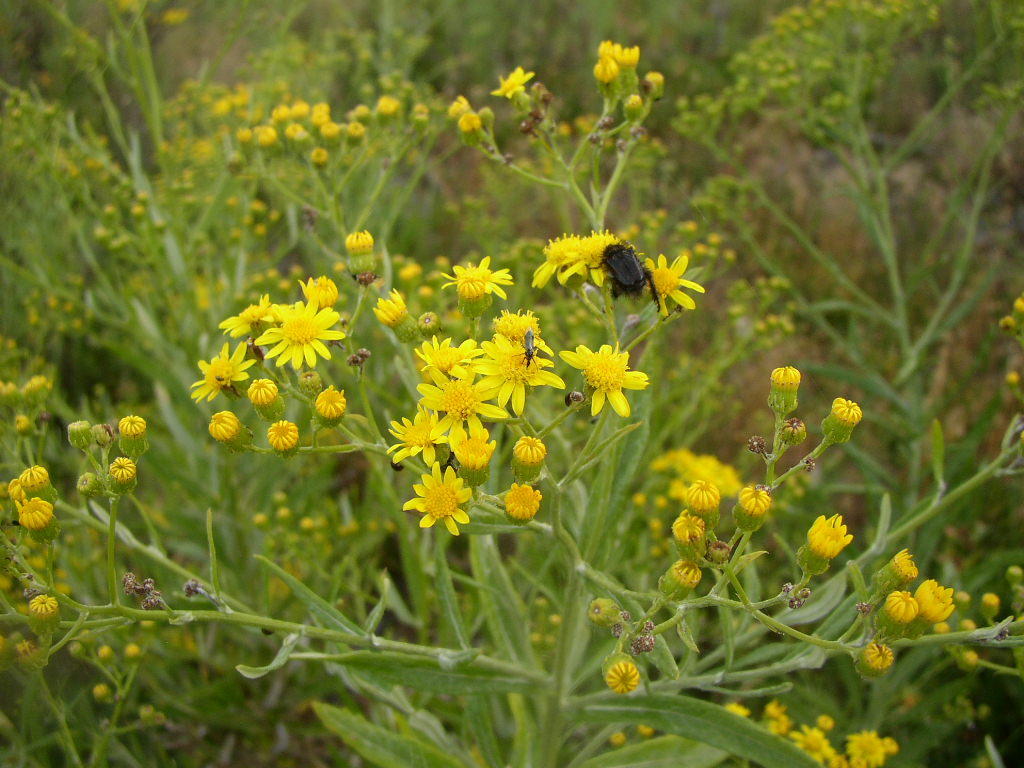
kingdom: Plantae
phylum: Tracheophyta
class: Magnoliopsida
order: Asterales
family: Asteraceae
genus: Senecio
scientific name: Senecio pterophorus
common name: Shoddy ragwort
